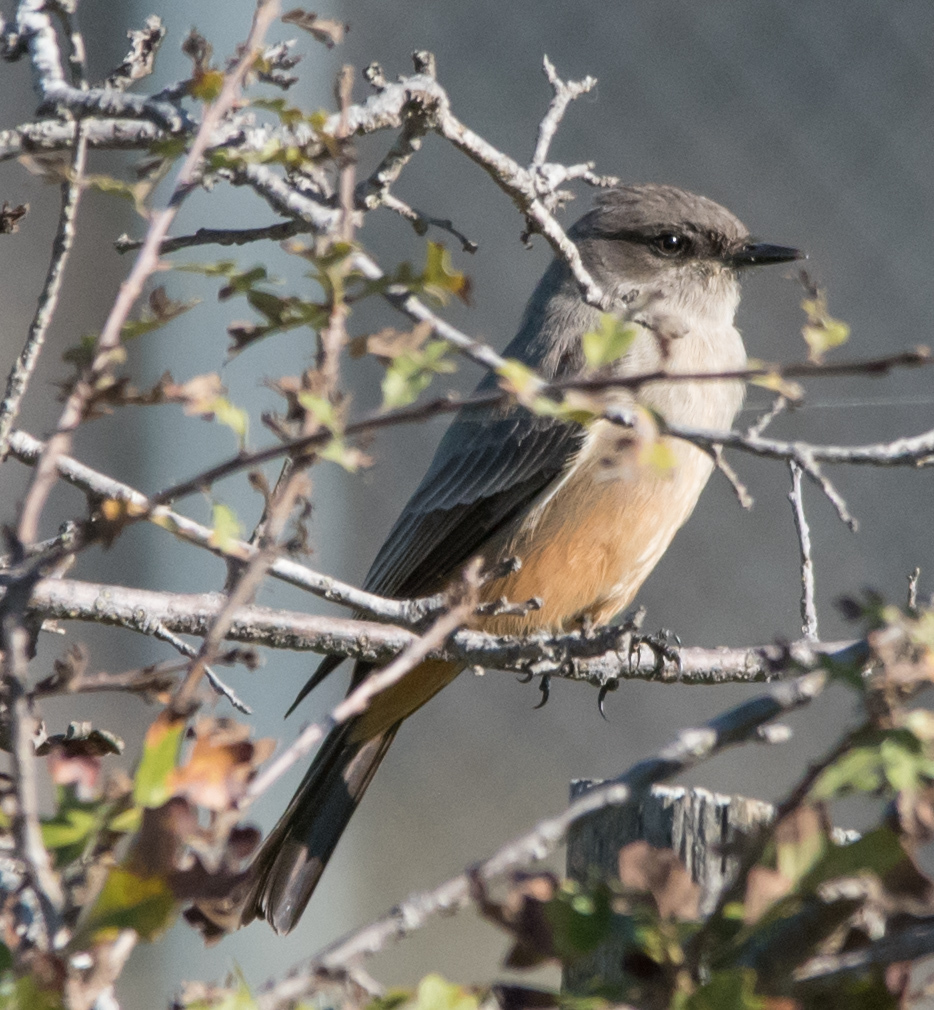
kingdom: Animalia
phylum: Chordata
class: Aves
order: Passeriformes
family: Tyrannidae
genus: Sayornis
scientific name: Sayornis saya
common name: Say's phoebe
